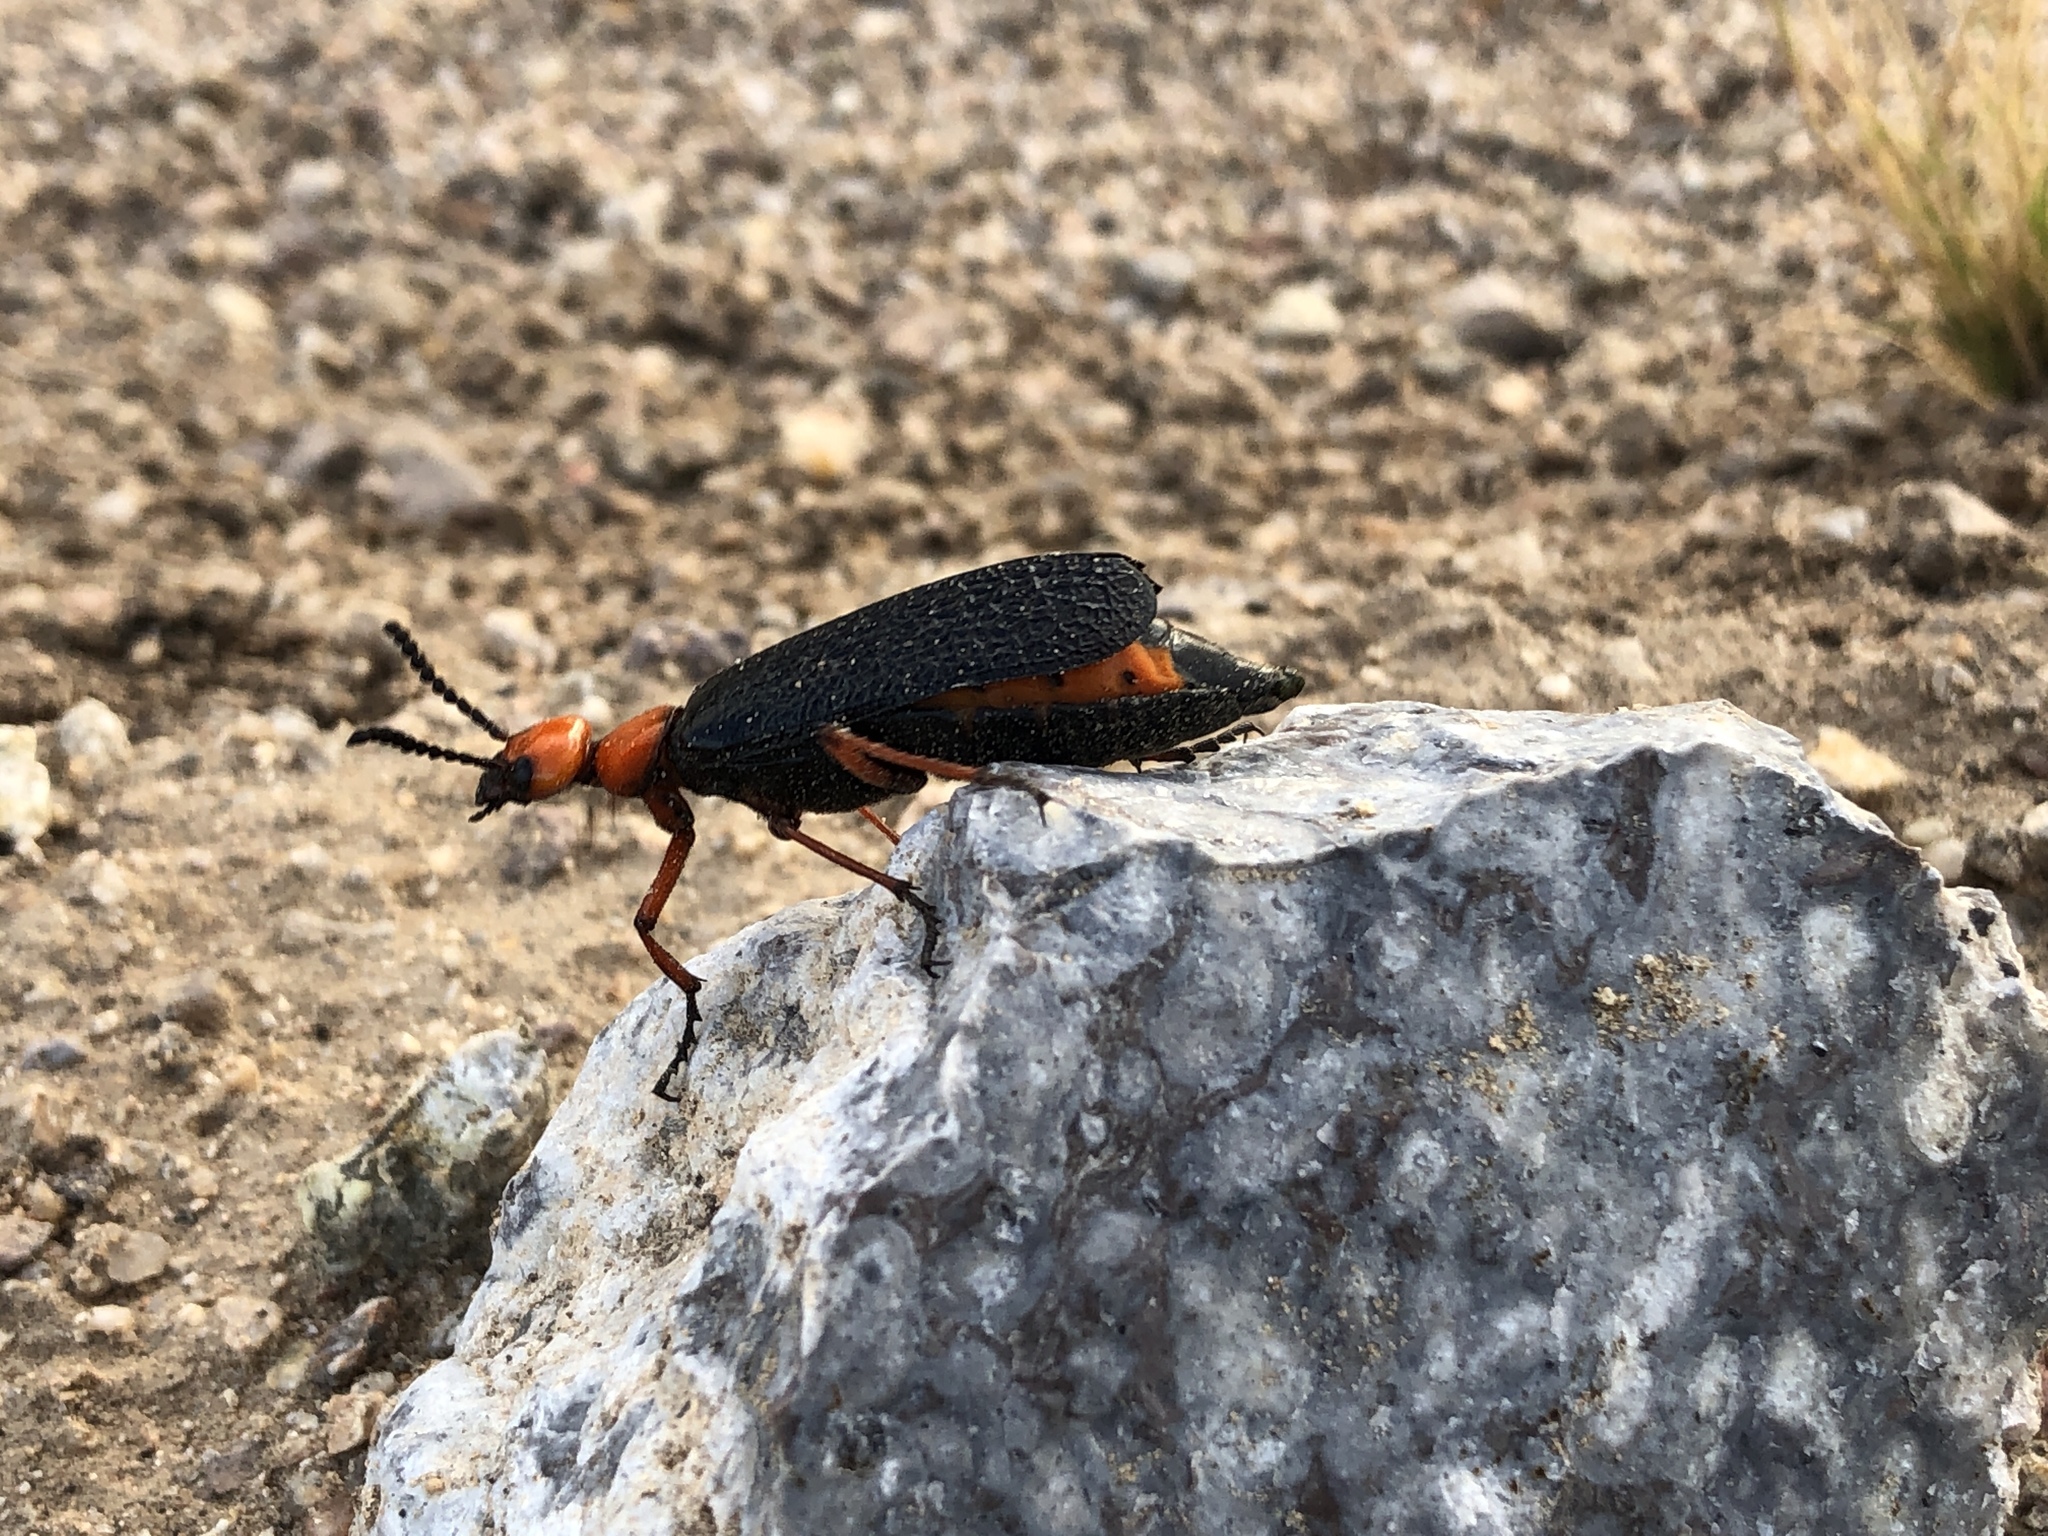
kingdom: Animalia
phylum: Arthropoda
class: Insecta
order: Coleoptera
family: Meloidae
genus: Lytta
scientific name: Lytta magister
